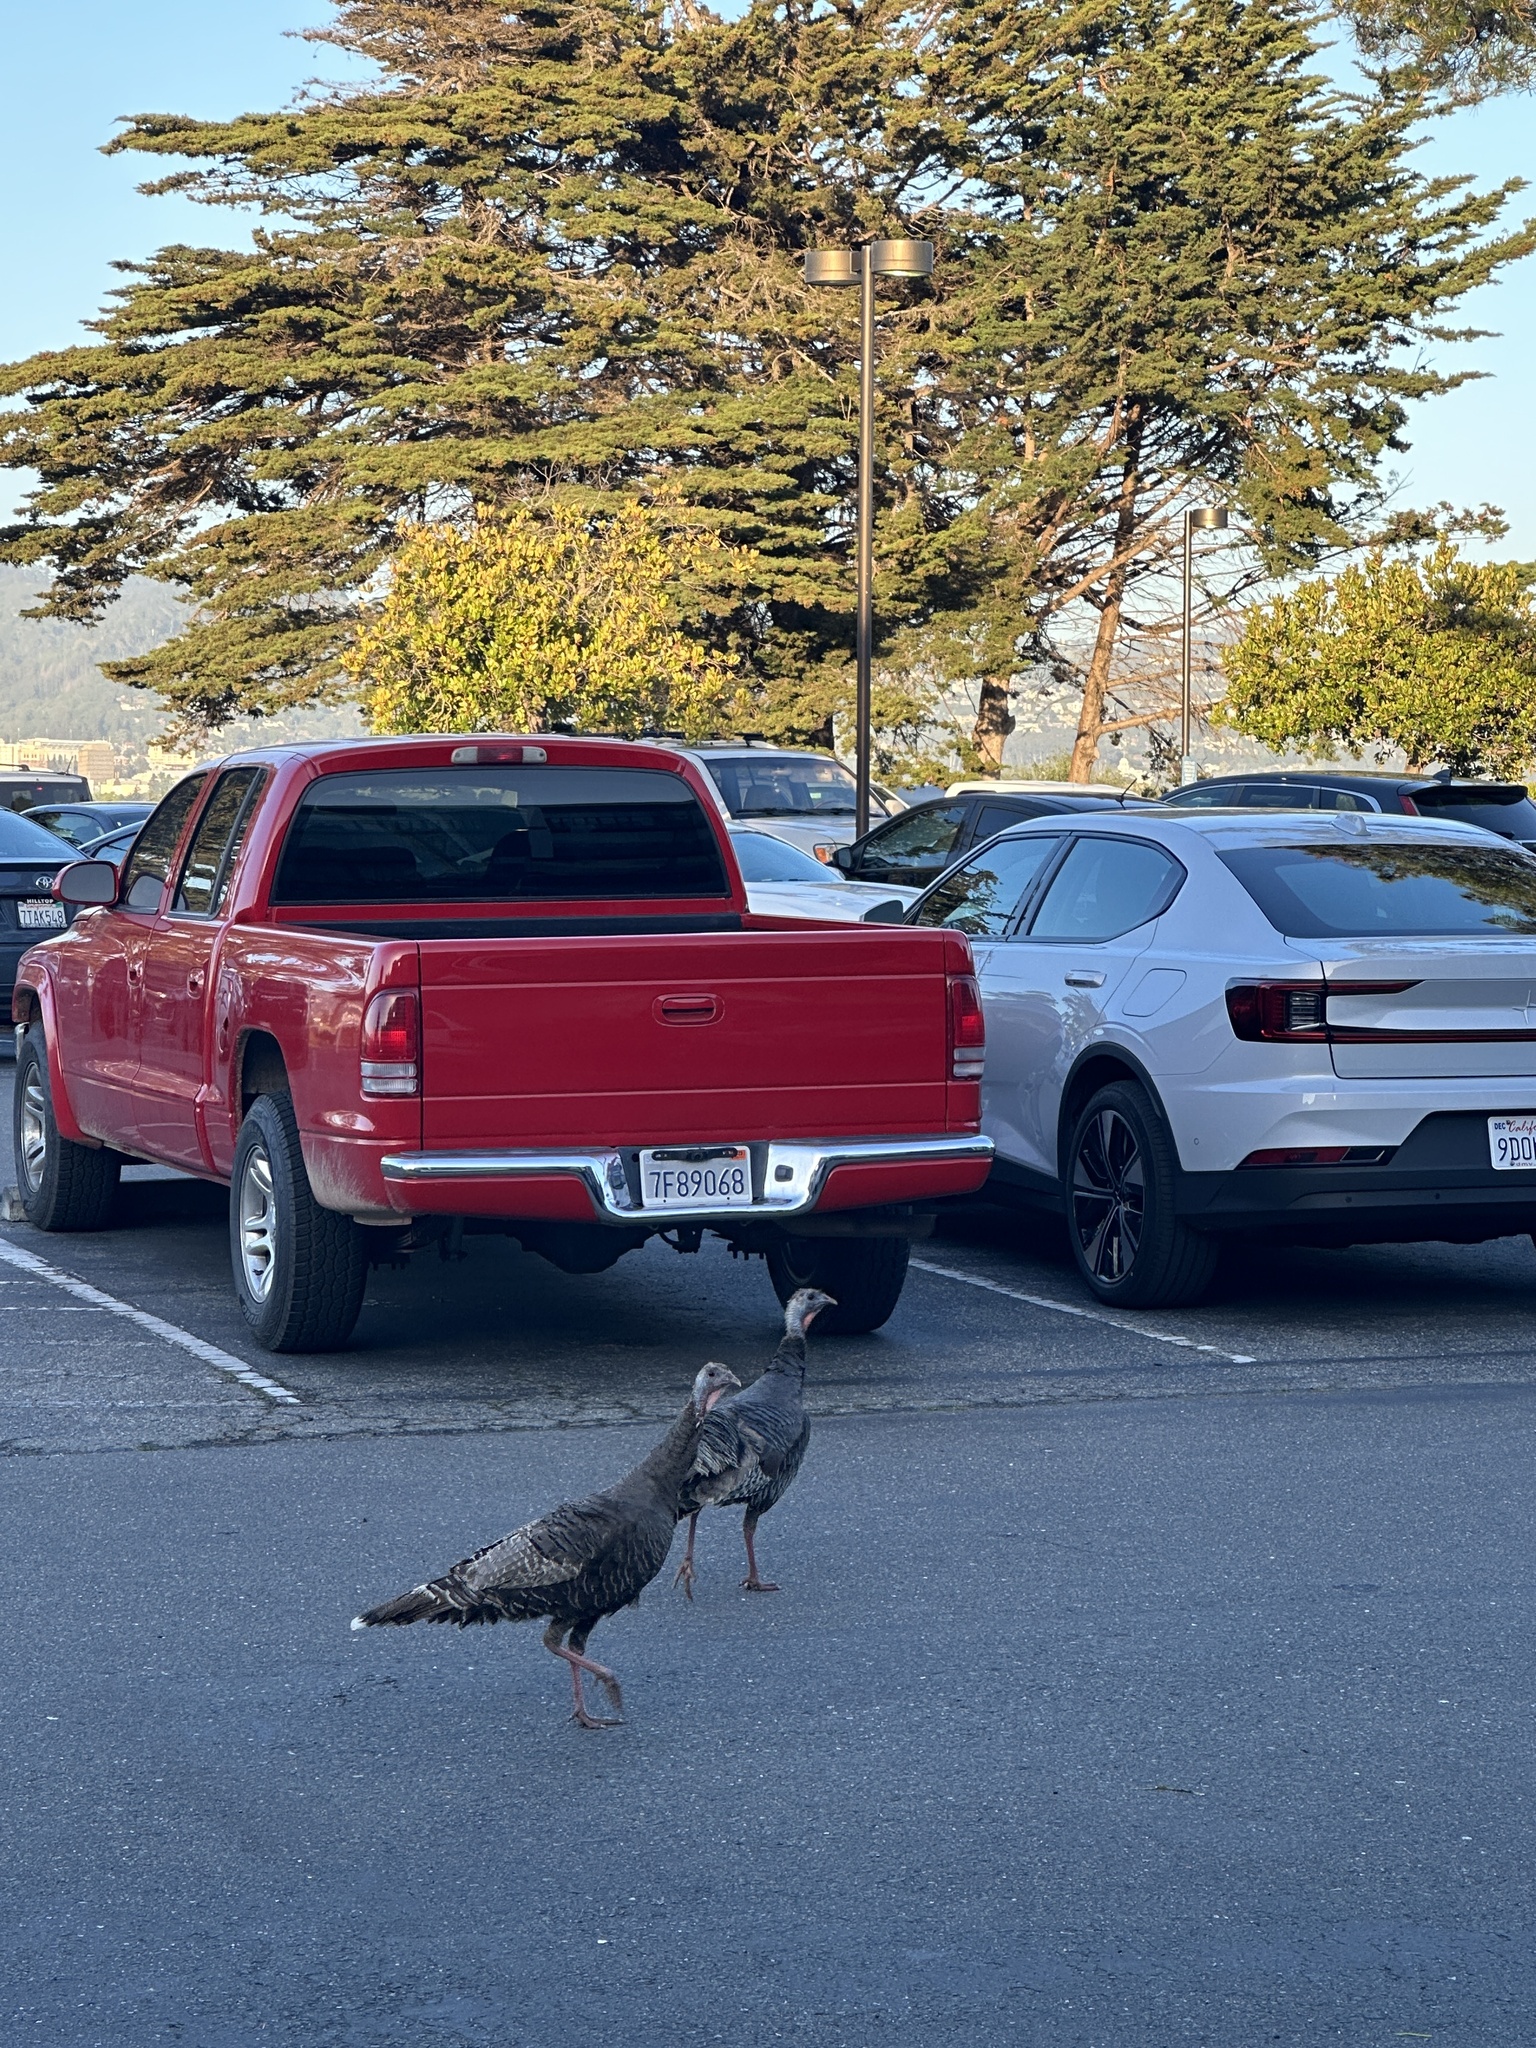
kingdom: Animalia
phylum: Chordata
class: Aves
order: Galliformes
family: Phasianidae
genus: Meleagris
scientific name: Meleagris gallopavo
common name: Wild turkey
